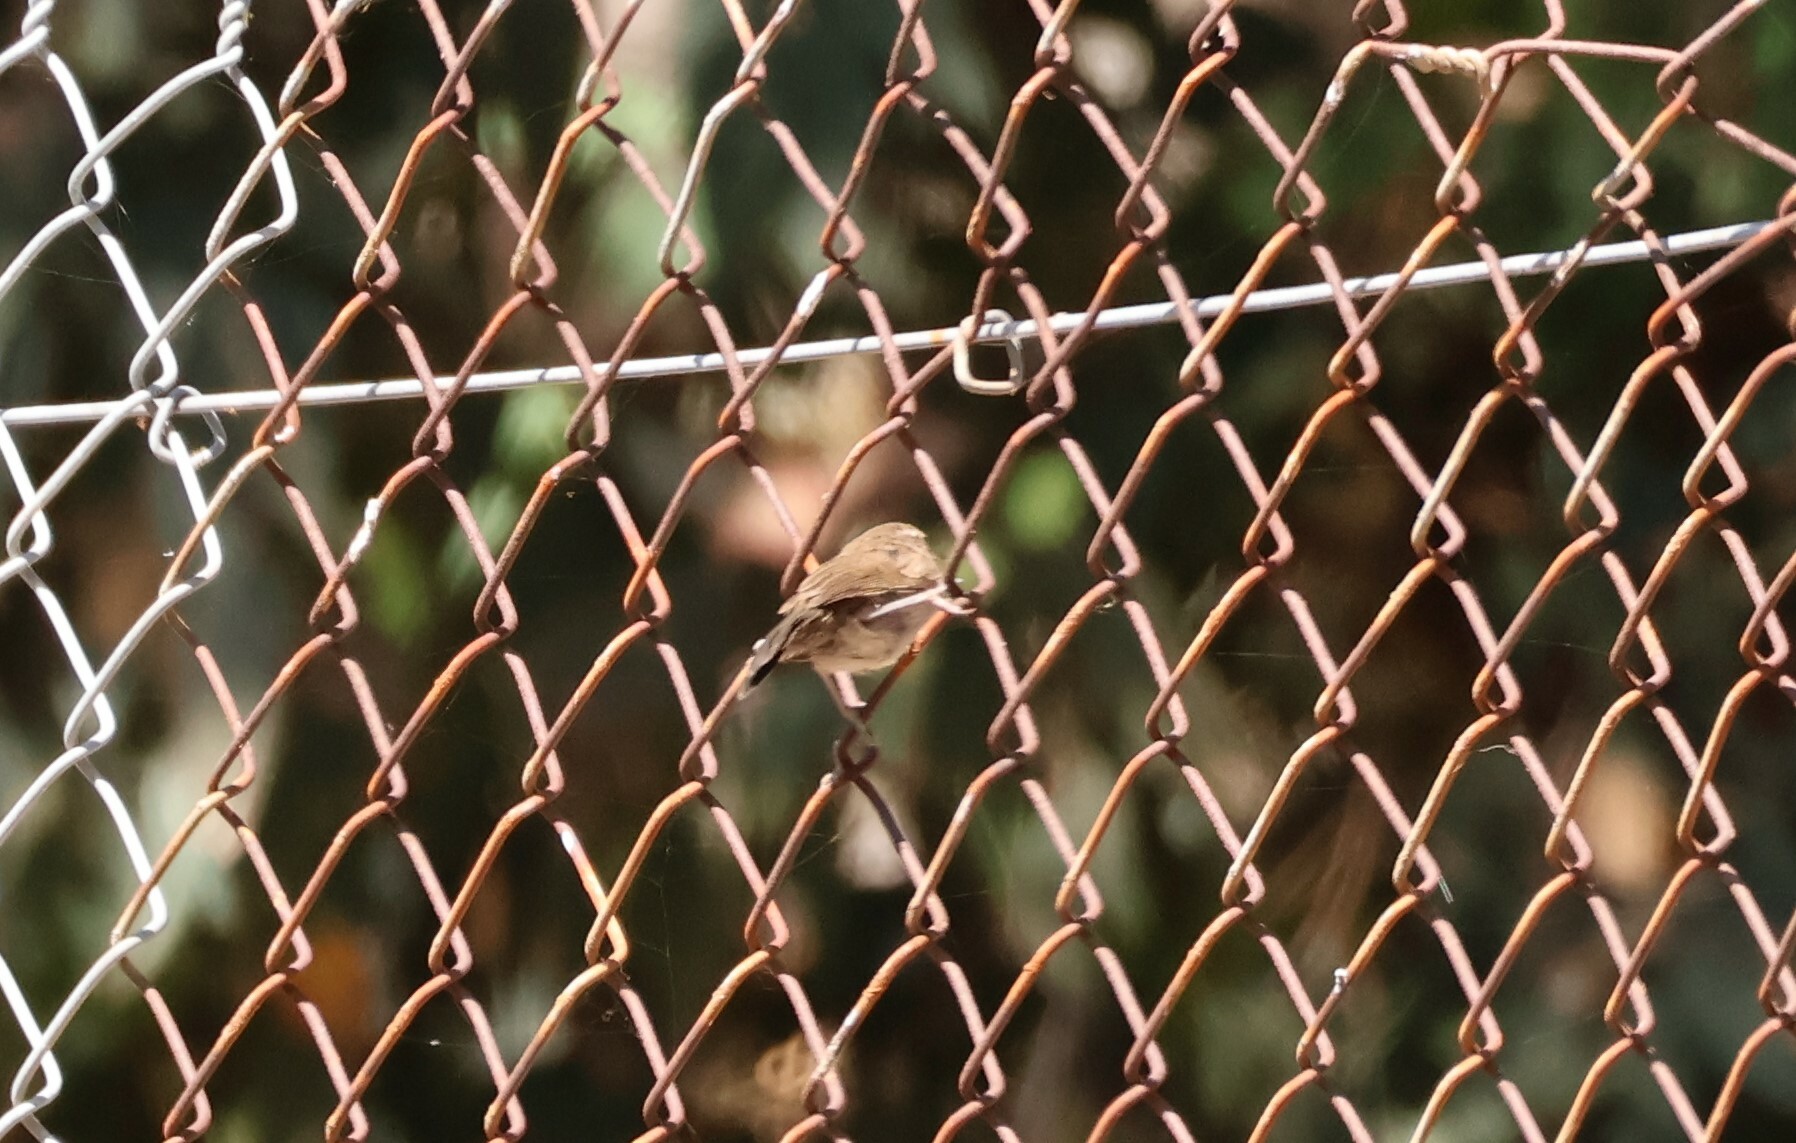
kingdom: Animalia
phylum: Chordata
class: Aves
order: Passeriformes
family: Troglodytidae
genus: Thryomanes
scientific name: Thryomanes bewickii
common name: Bewick's wren
